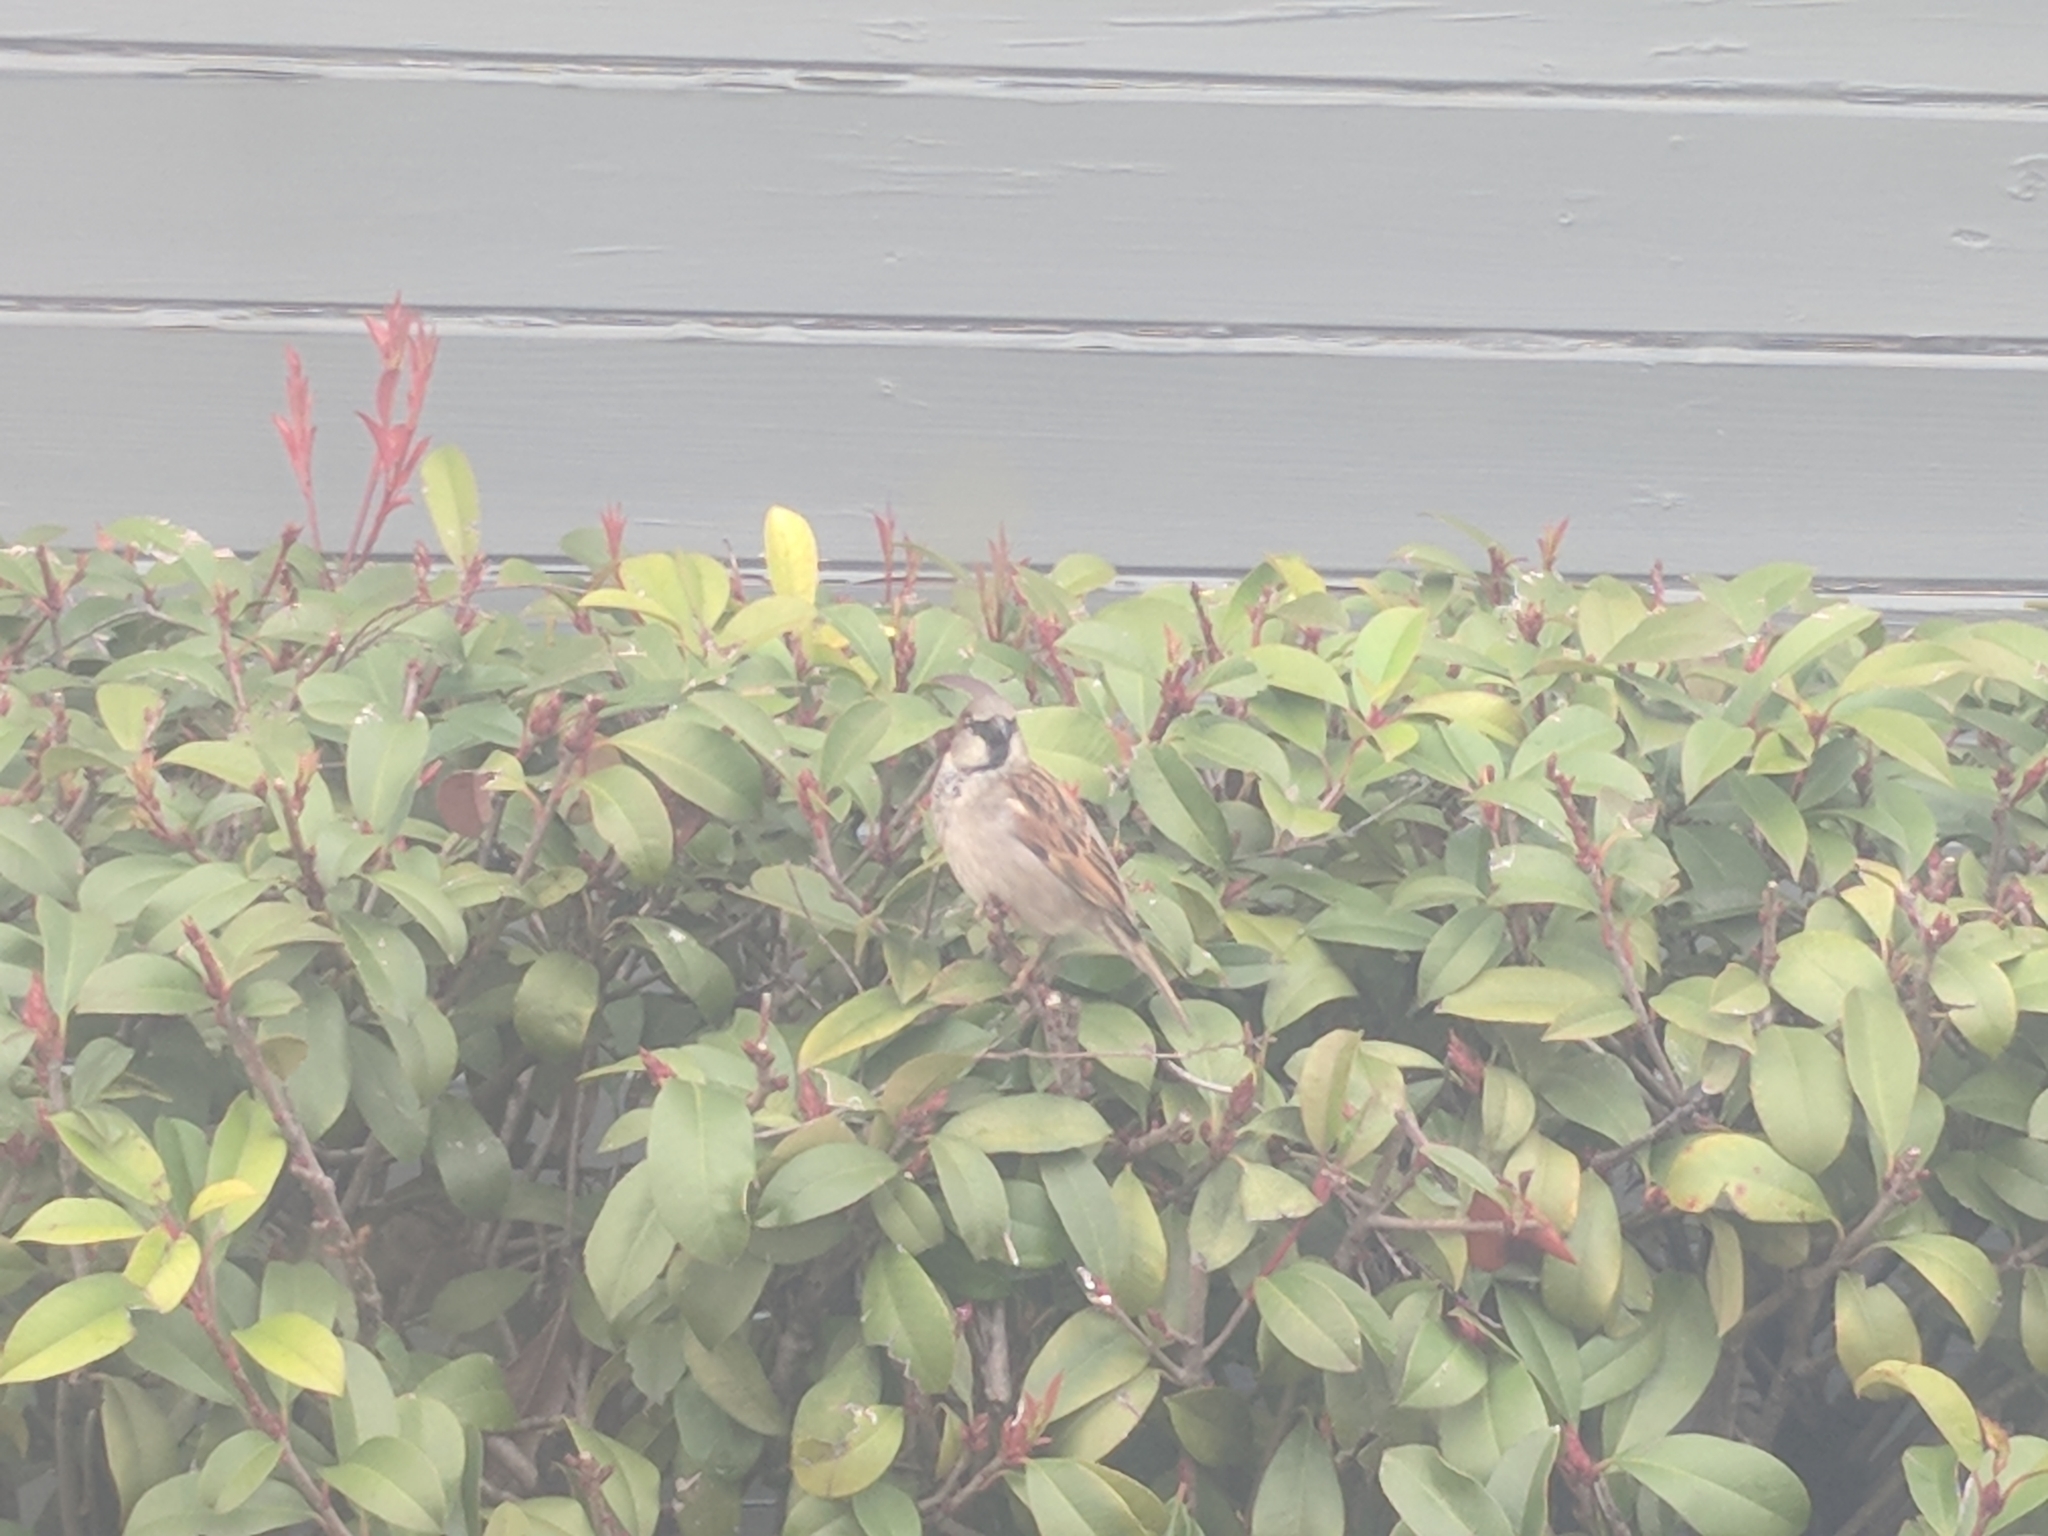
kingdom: Animalia
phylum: Chordata
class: Aves
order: Passeriformes
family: Passeridae
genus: Passer
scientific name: Passer domesticus
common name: House sparrow
